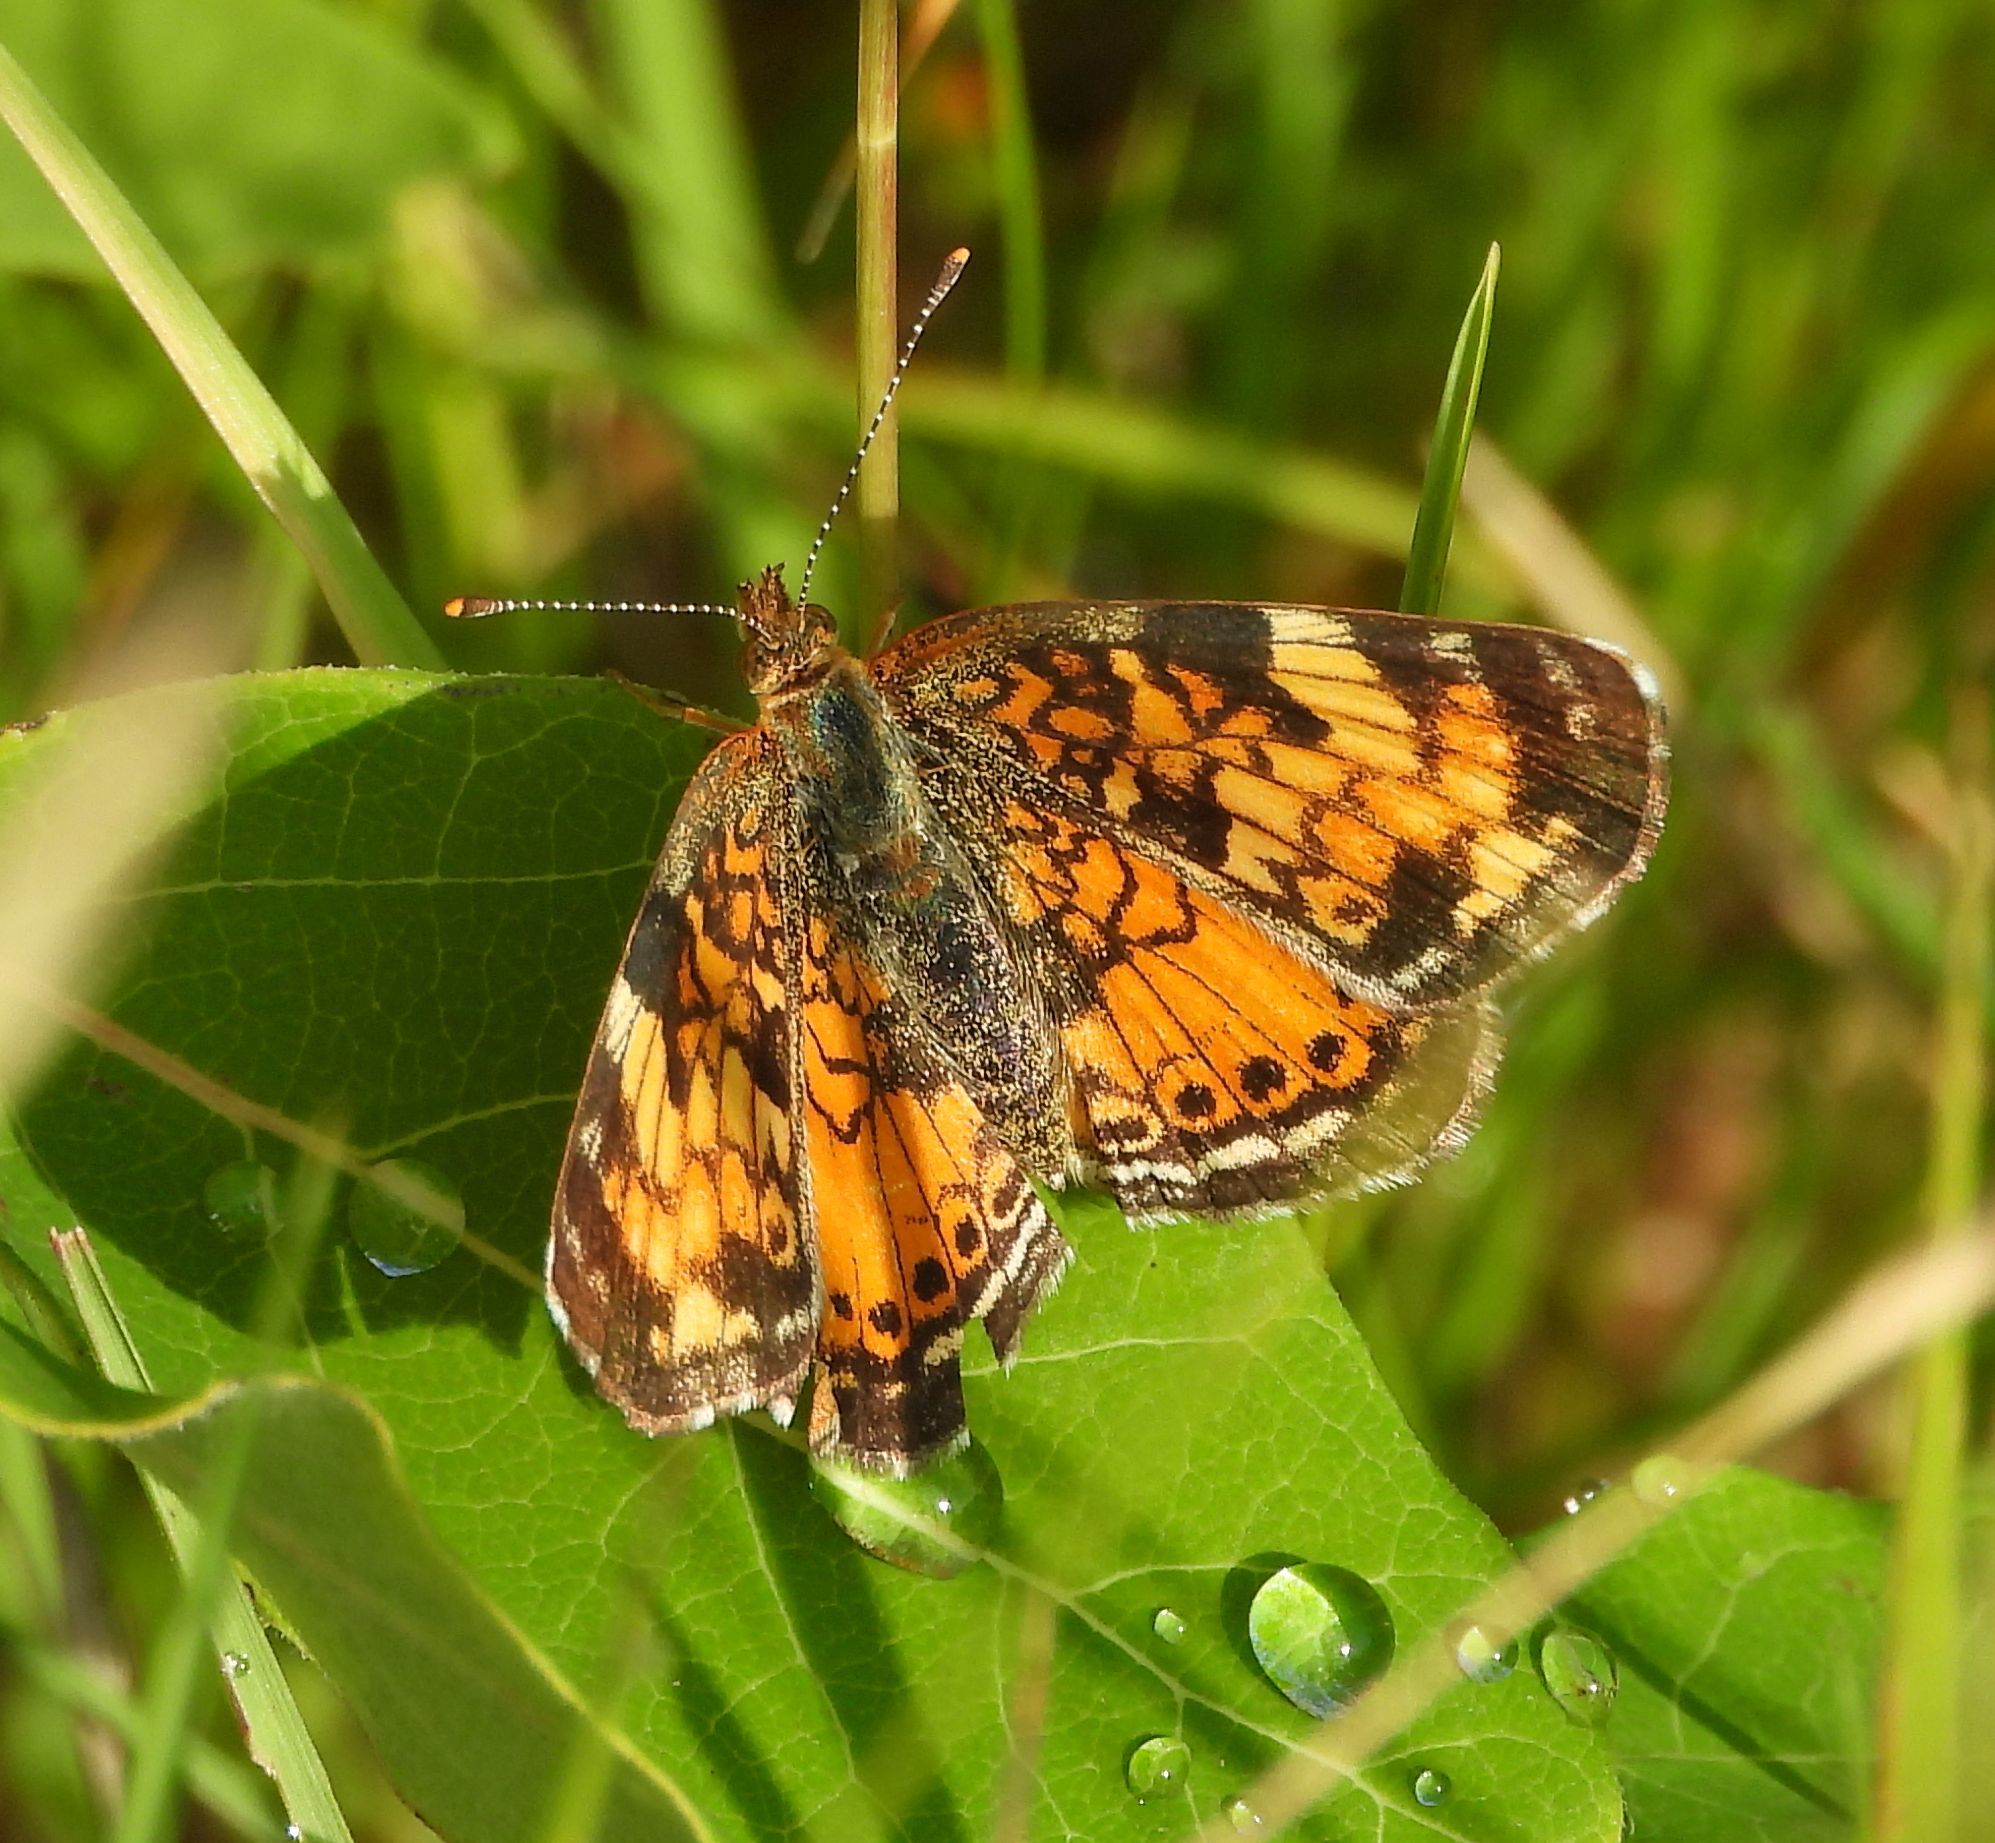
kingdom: Animalia
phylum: Arthropoda
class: Insecta
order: Lepidoptera
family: Nymphalidae
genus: Phyciodes
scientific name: Phyciodes tharos
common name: Pearl crescent
